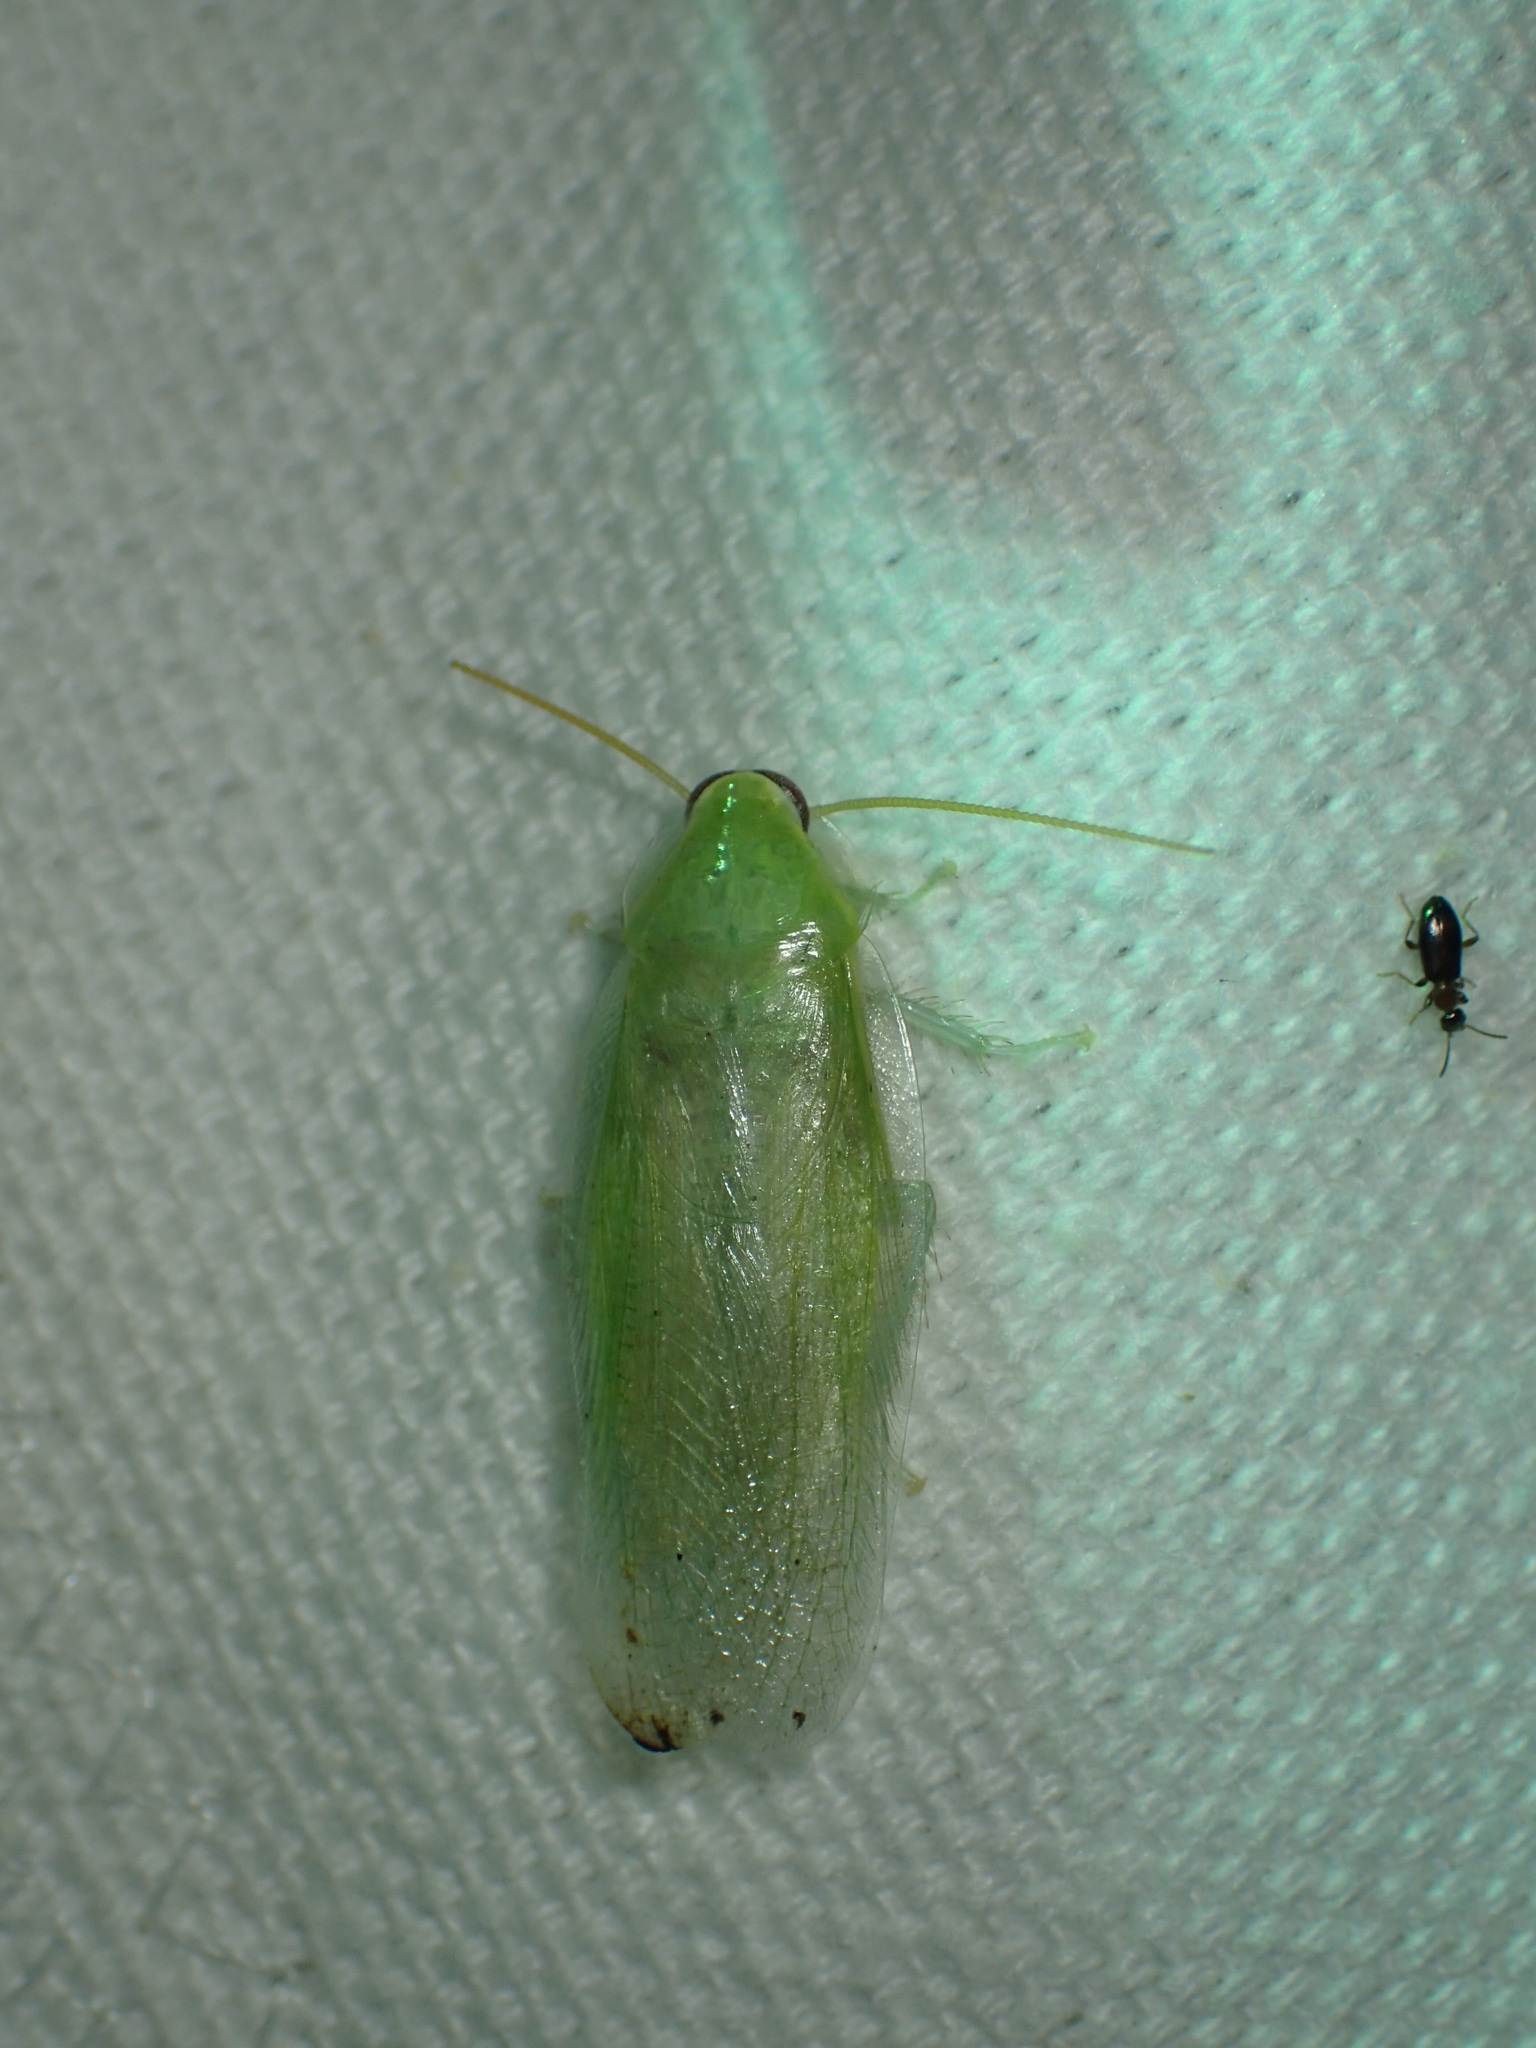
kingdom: Animalia
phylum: Arthropoda
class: Insecta
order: Blattodea
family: Blaberidae
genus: Panchlora
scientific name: Panchlora nivea
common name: Cuban cockroach
